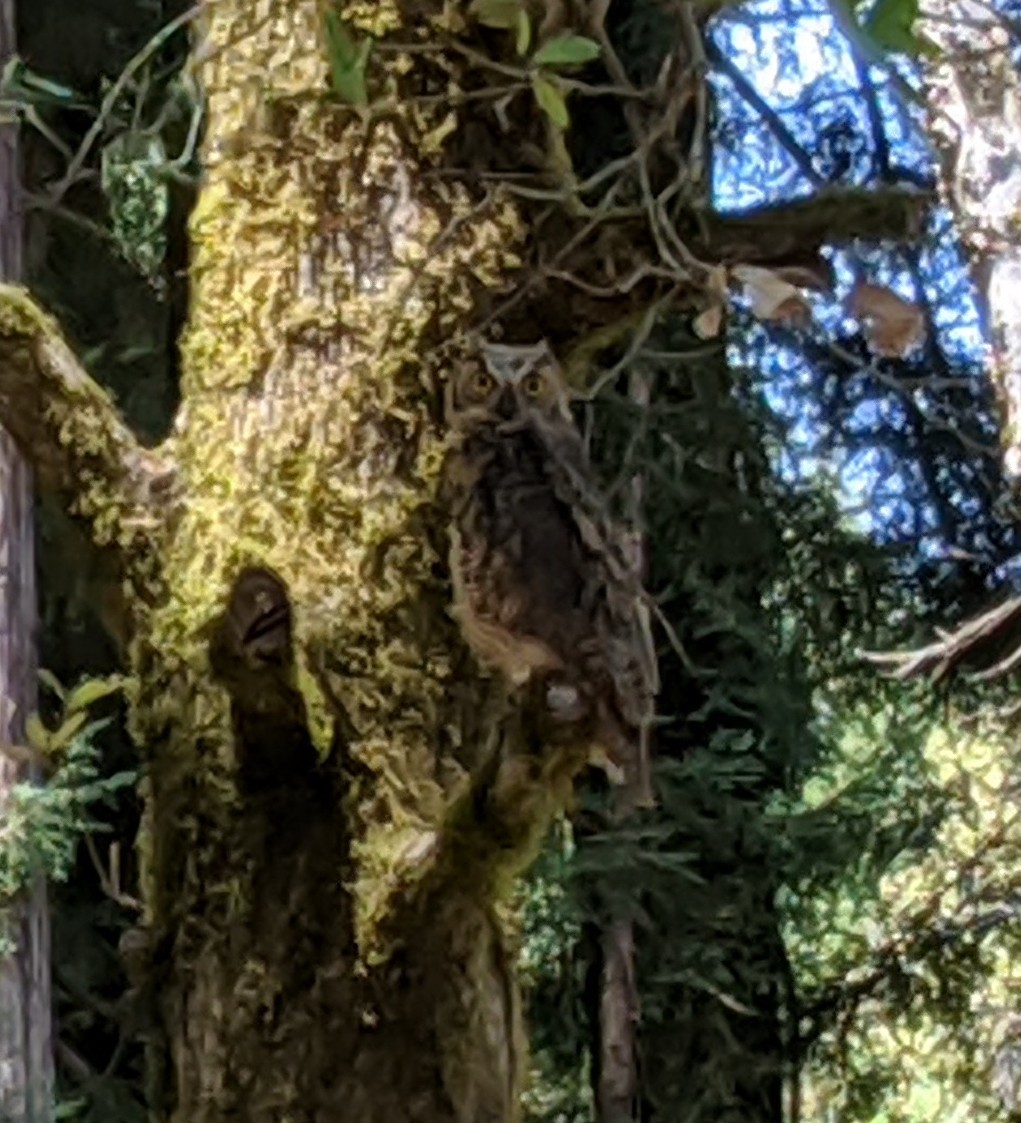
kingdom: Animalia
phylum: Chordata
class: Aves
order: Strigiformes
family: Strigidae
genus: Bubo
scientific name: Bubo virginianus
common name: Great horned owl
